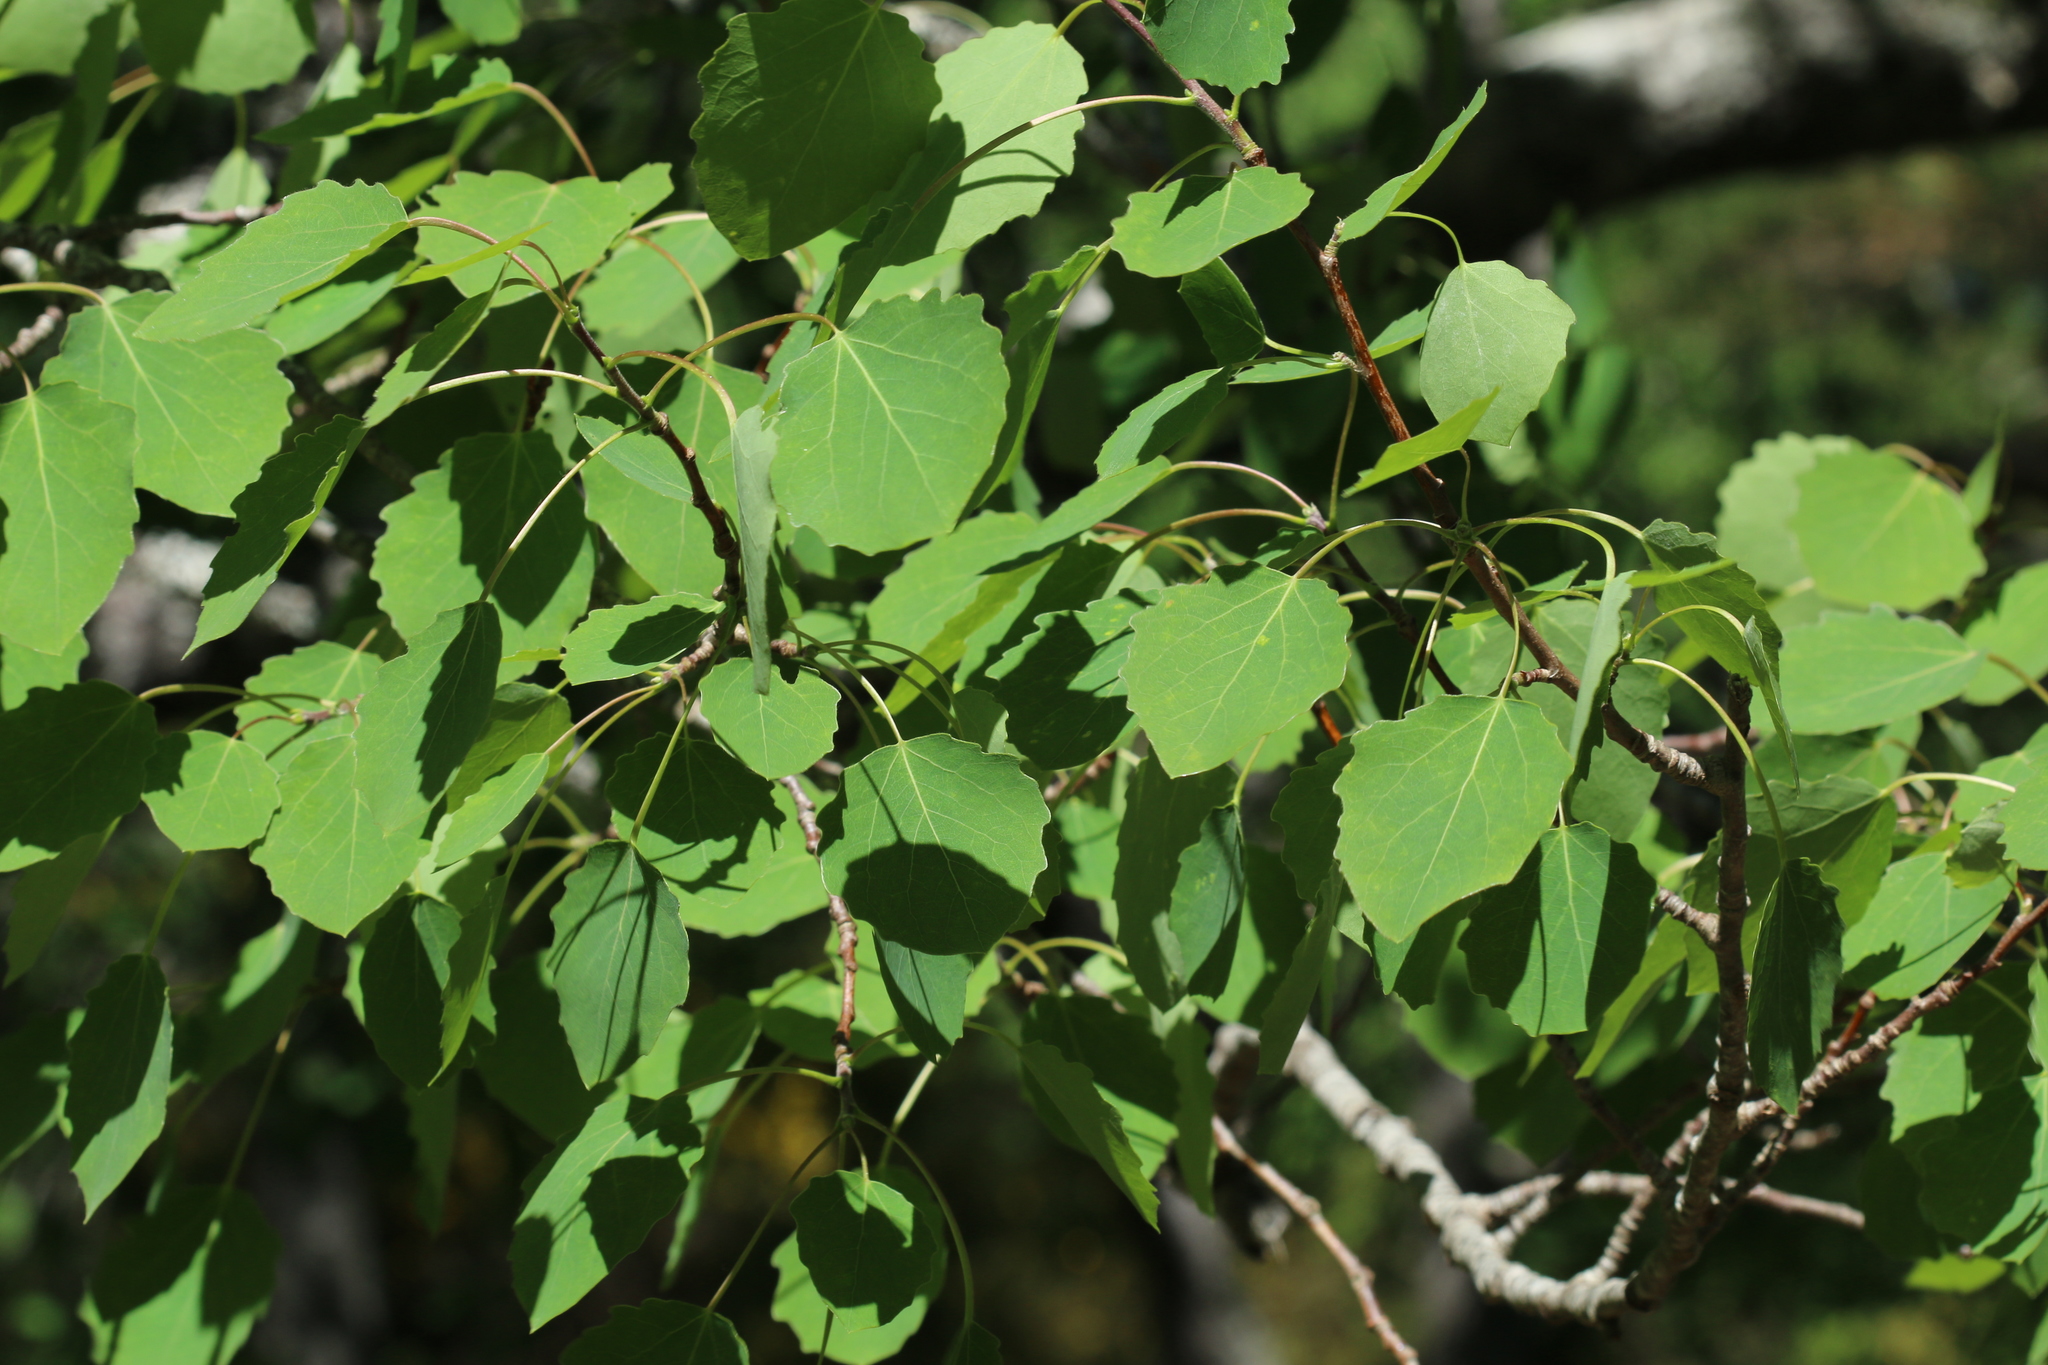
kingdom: Plantae
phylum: Tracheophyta
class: Magnoliopsida
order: Malpighiales
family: Salicaceae
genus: Populus
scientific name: Populus tremula
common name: European aspen
